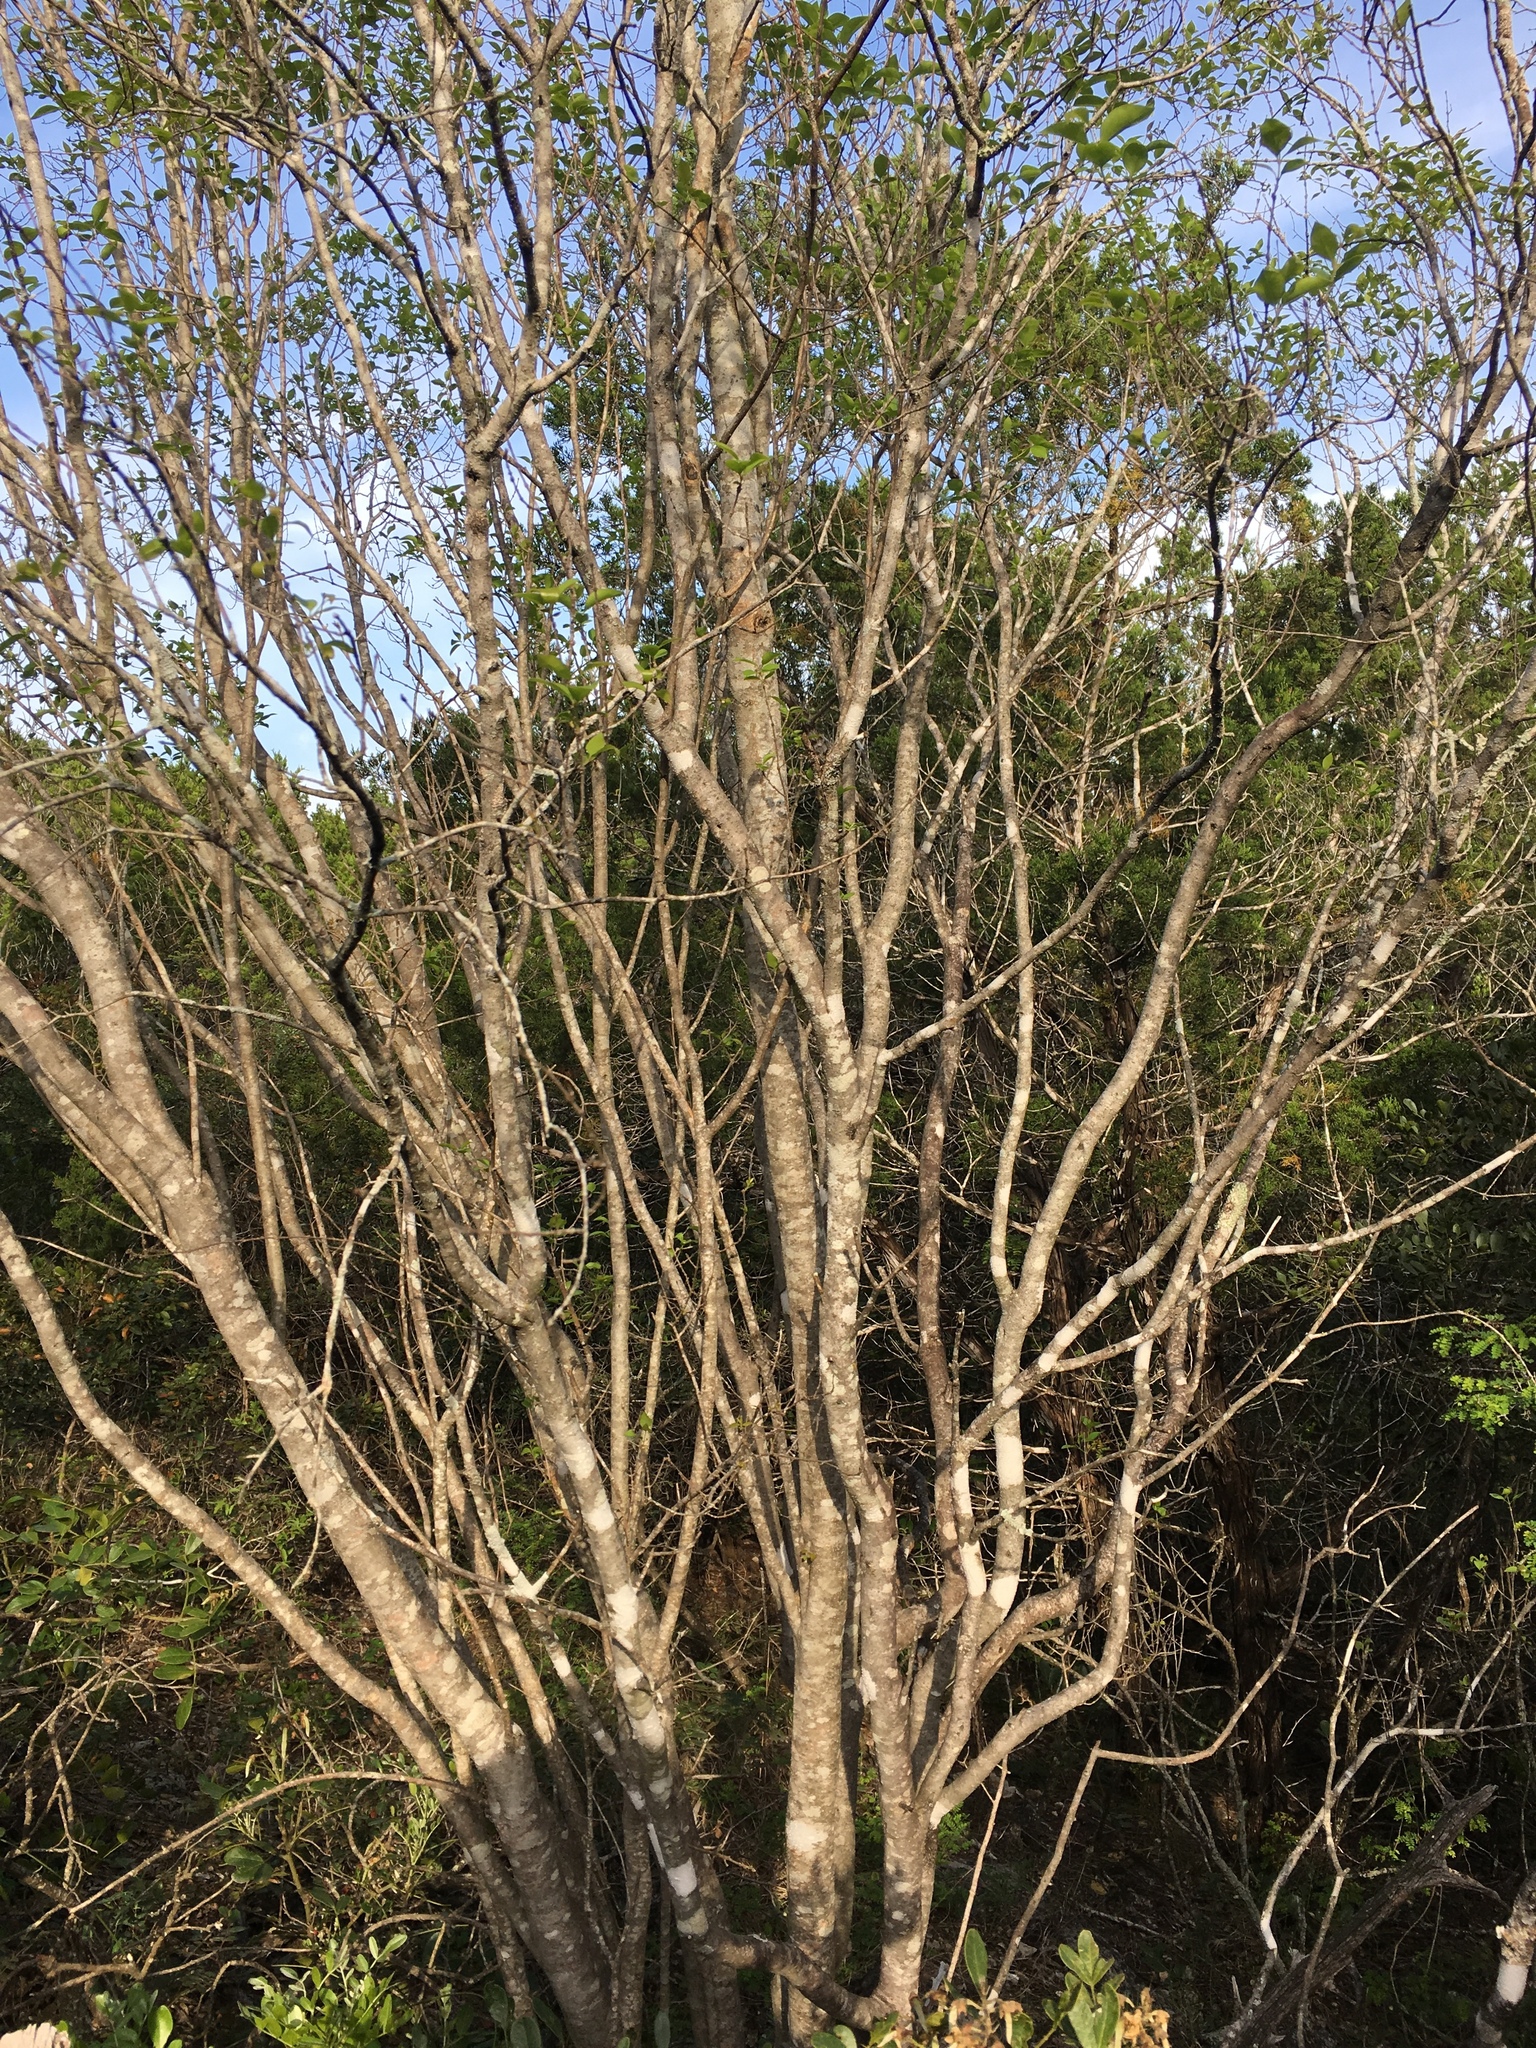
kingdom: Plantae
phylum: Tracheophyta
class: Magnoliopsida
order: Lamiales
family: Oleaceae
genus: Forestiera
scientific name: Forestiera reticulata
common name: Netleaf swamp-privet
